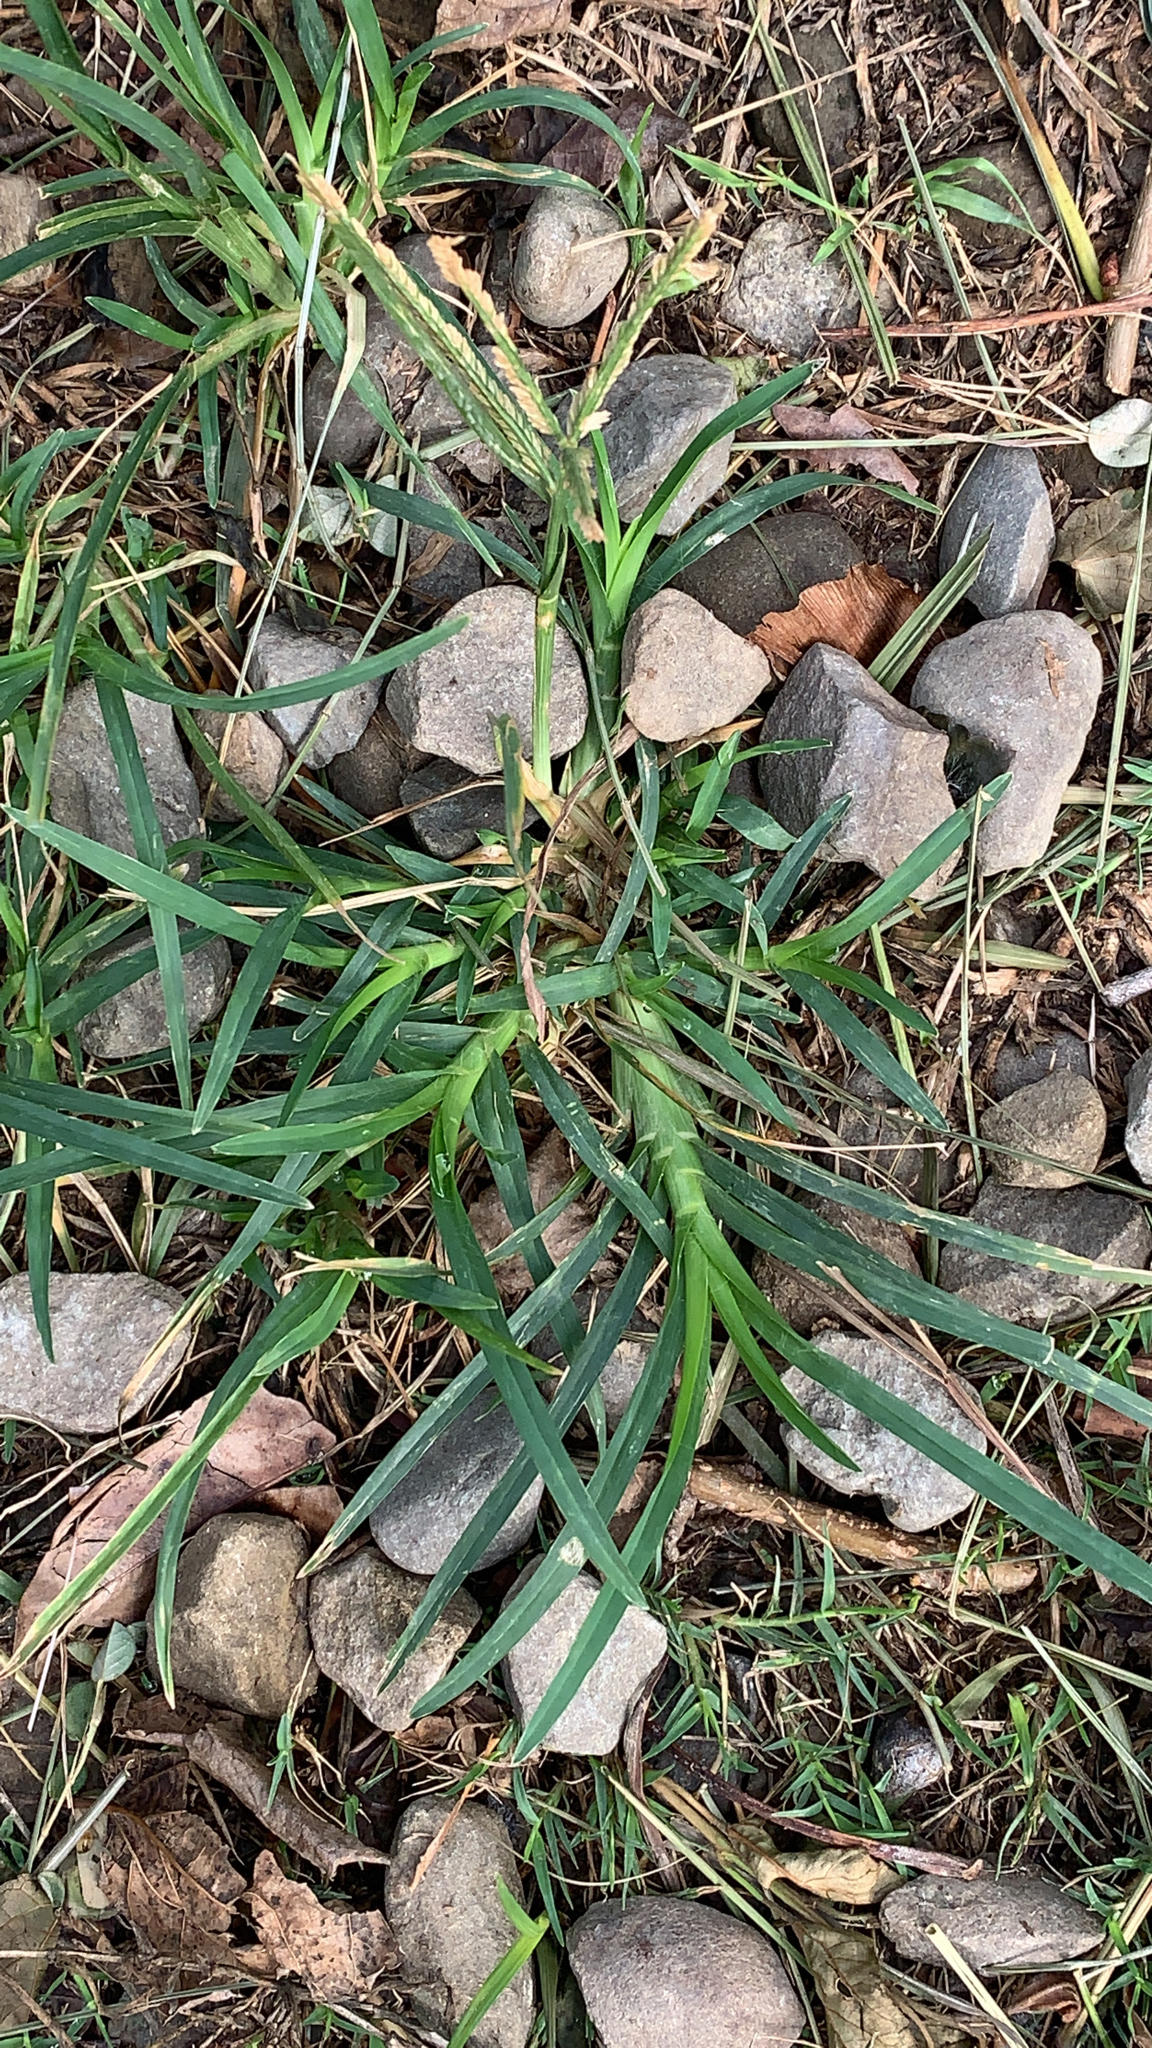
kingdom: Plantae
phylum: Tracheophyta
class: Liliopsida
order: Poales
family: Poaceae
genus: Eleusine
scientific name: Eleusine indica
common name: Yard-grass
